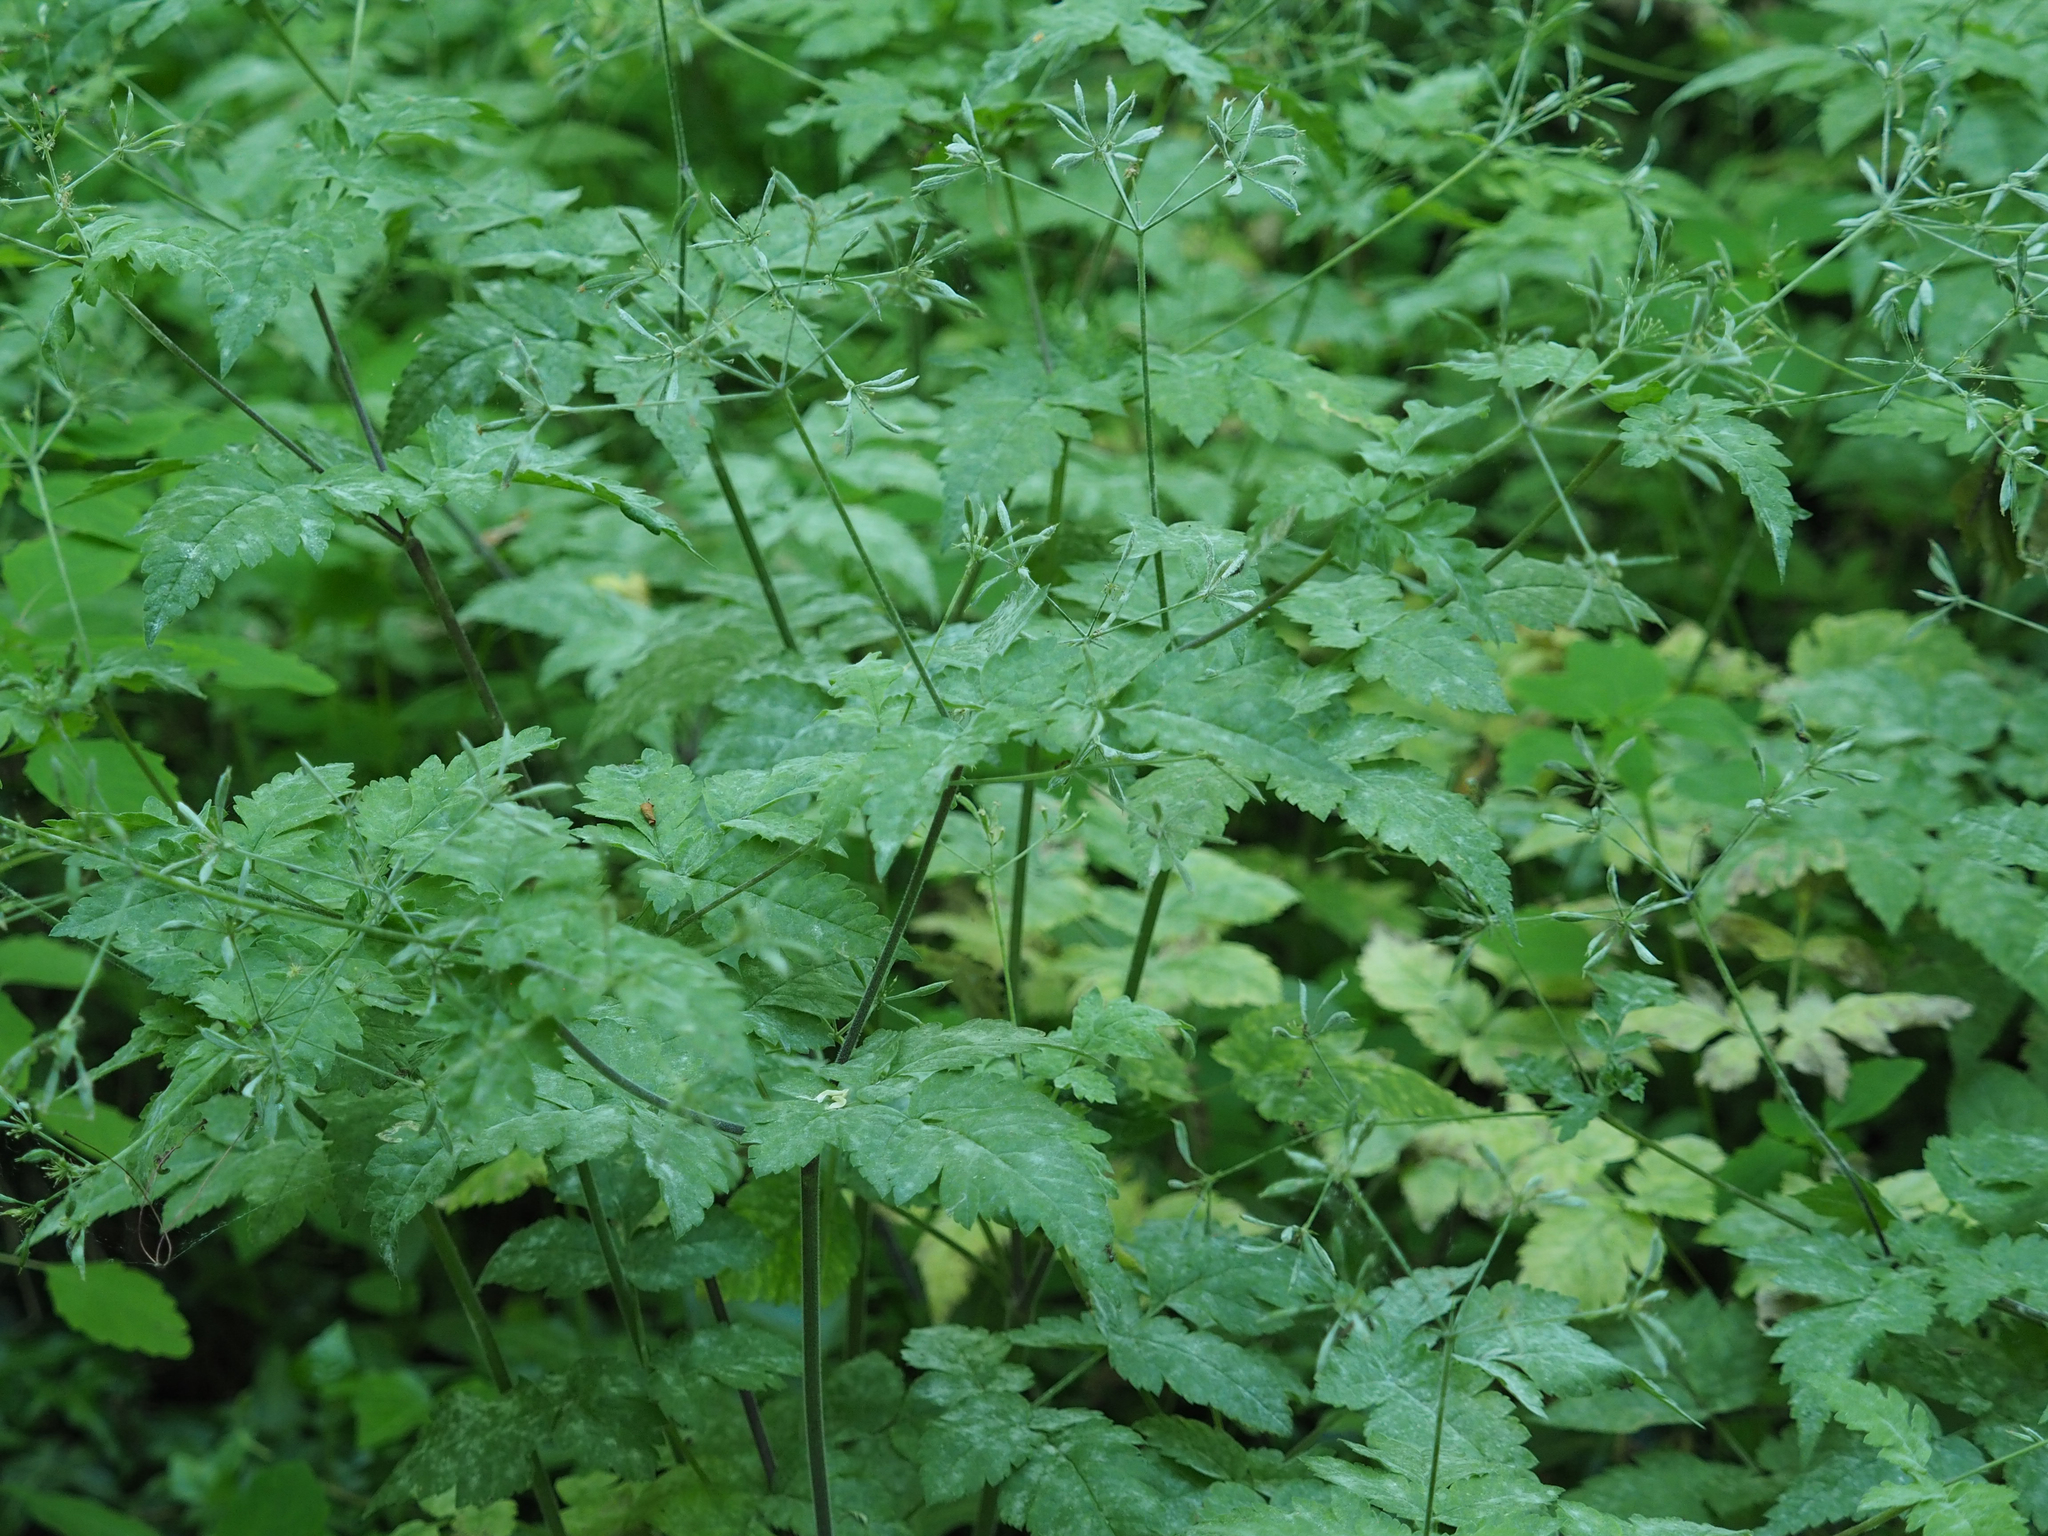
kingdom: Plantae
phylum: Tracheophyta
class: Magnoliopsida
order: Apiales
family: Apiaceae
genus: Osmorhiza
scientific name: Osmorhiza claytonii
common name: Hairy sweet cicely
